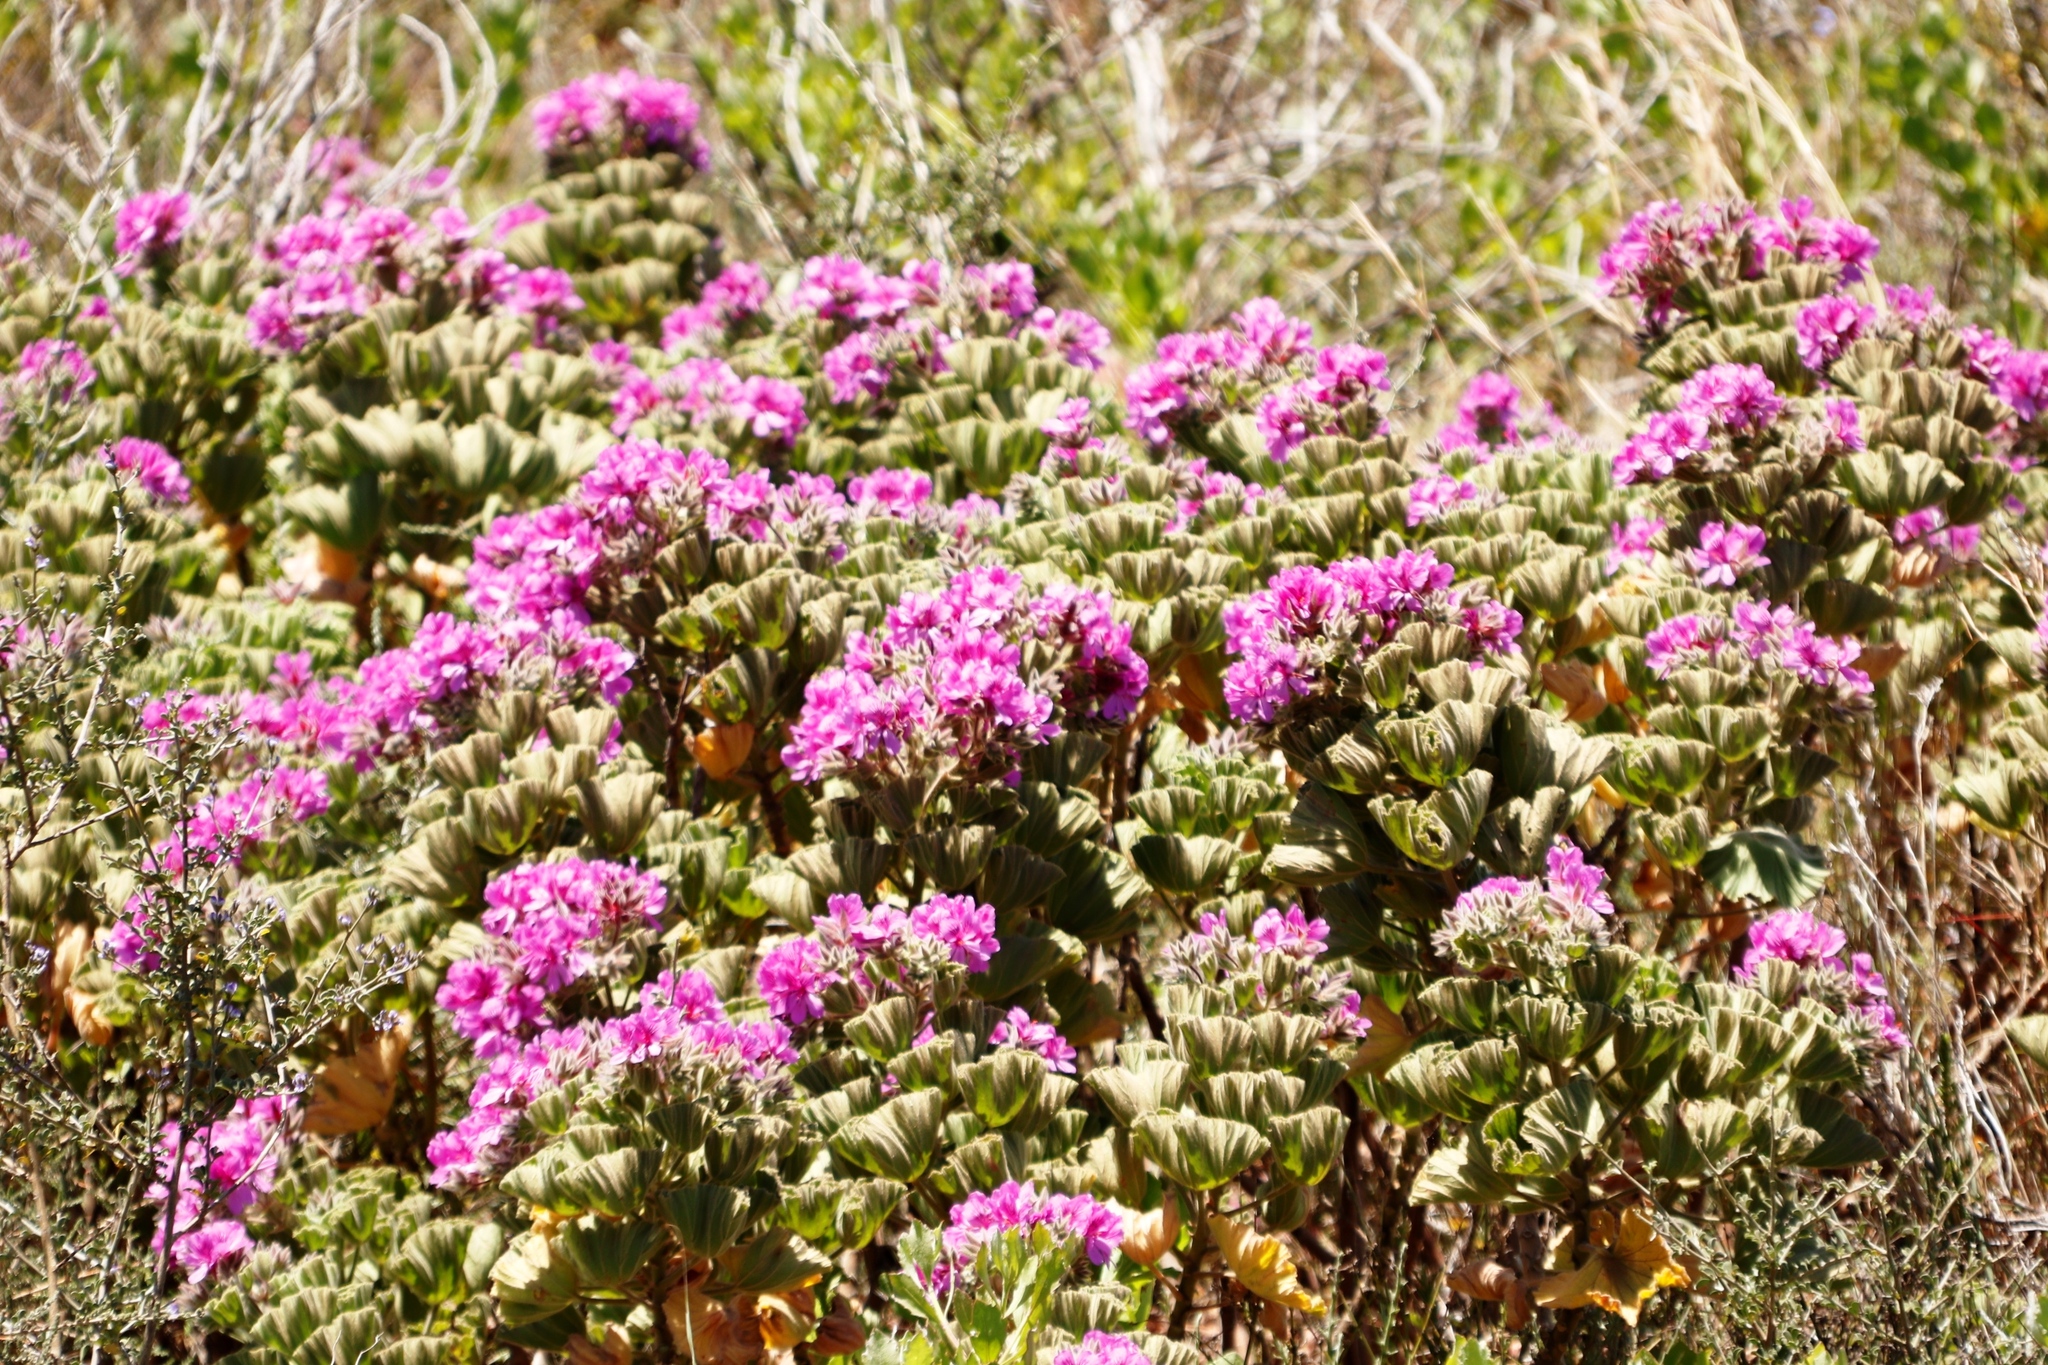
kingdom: Plantae
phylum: Tracheophyta
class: Magnoliopsida
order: Geraniales
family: Geraniaceae
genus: Pelargonium
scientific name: Pelargonium cucullatum
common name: Tree pelargonium
